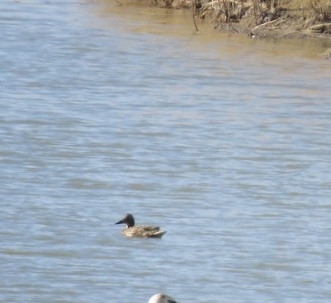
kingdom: Animalia
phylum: Chordata
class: Aves
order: Anseriformes
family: Anatidae
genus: Anas
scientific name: Anas platyrhynchos
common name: Mallard
